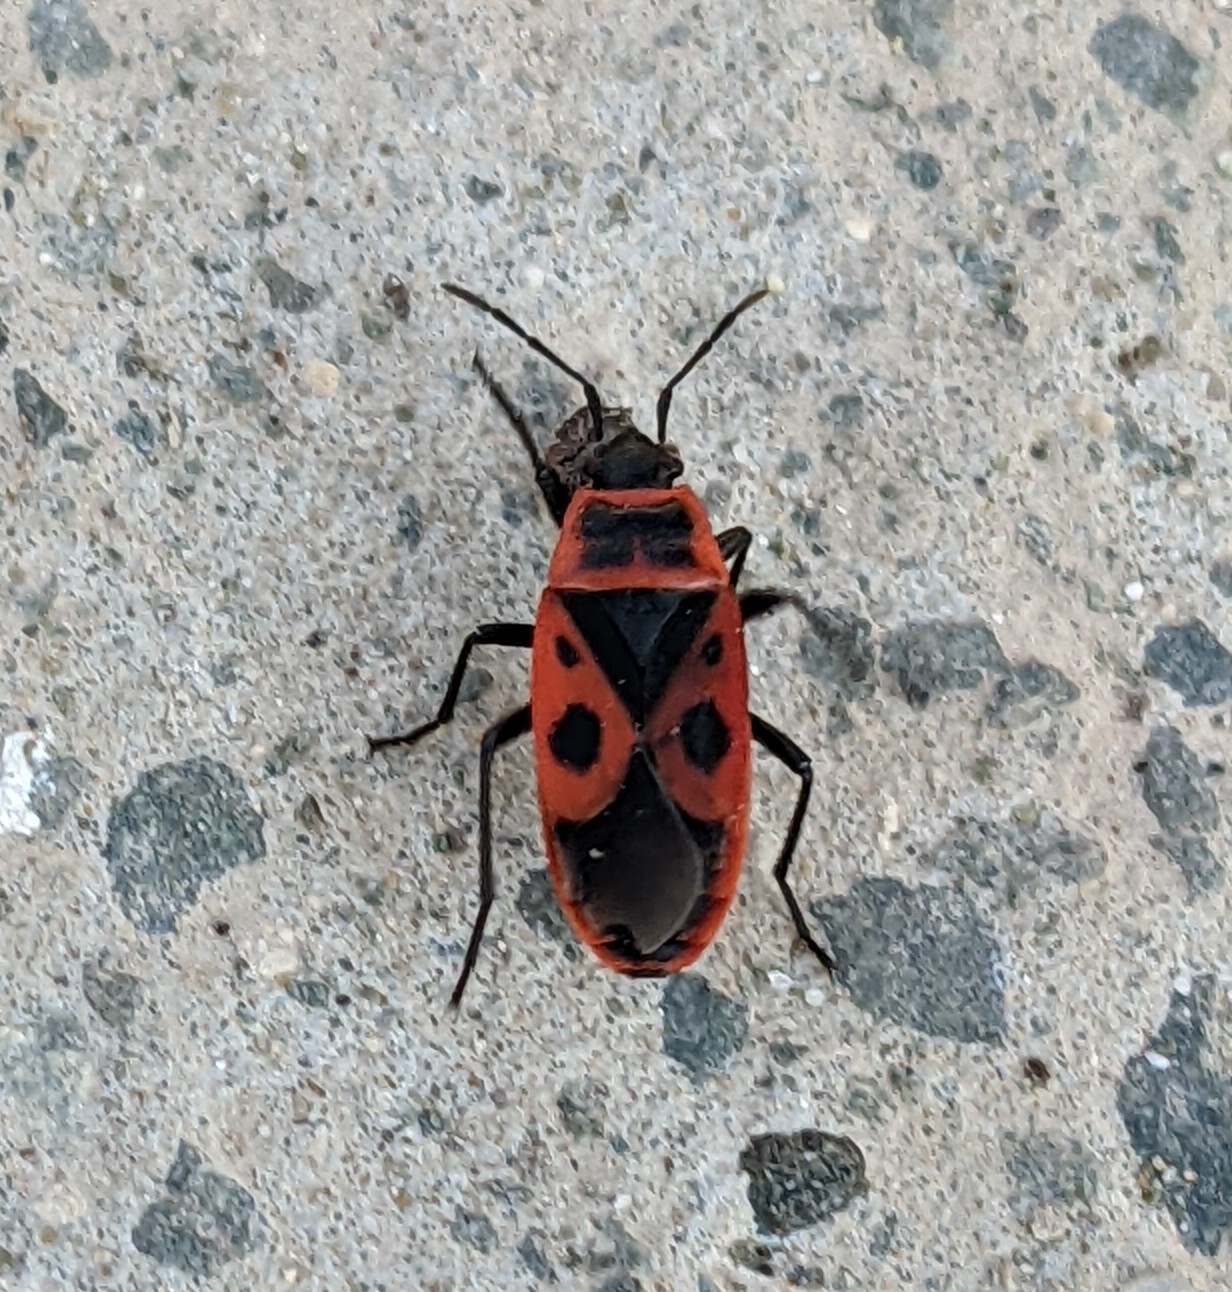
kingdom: Animalia
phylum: Arthropoda
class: Insecta
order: Hemiptera
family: Pyrrhocoridae
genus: Pyrrhocoris
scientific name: Pyrrhocoris apterus
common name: Firebug
